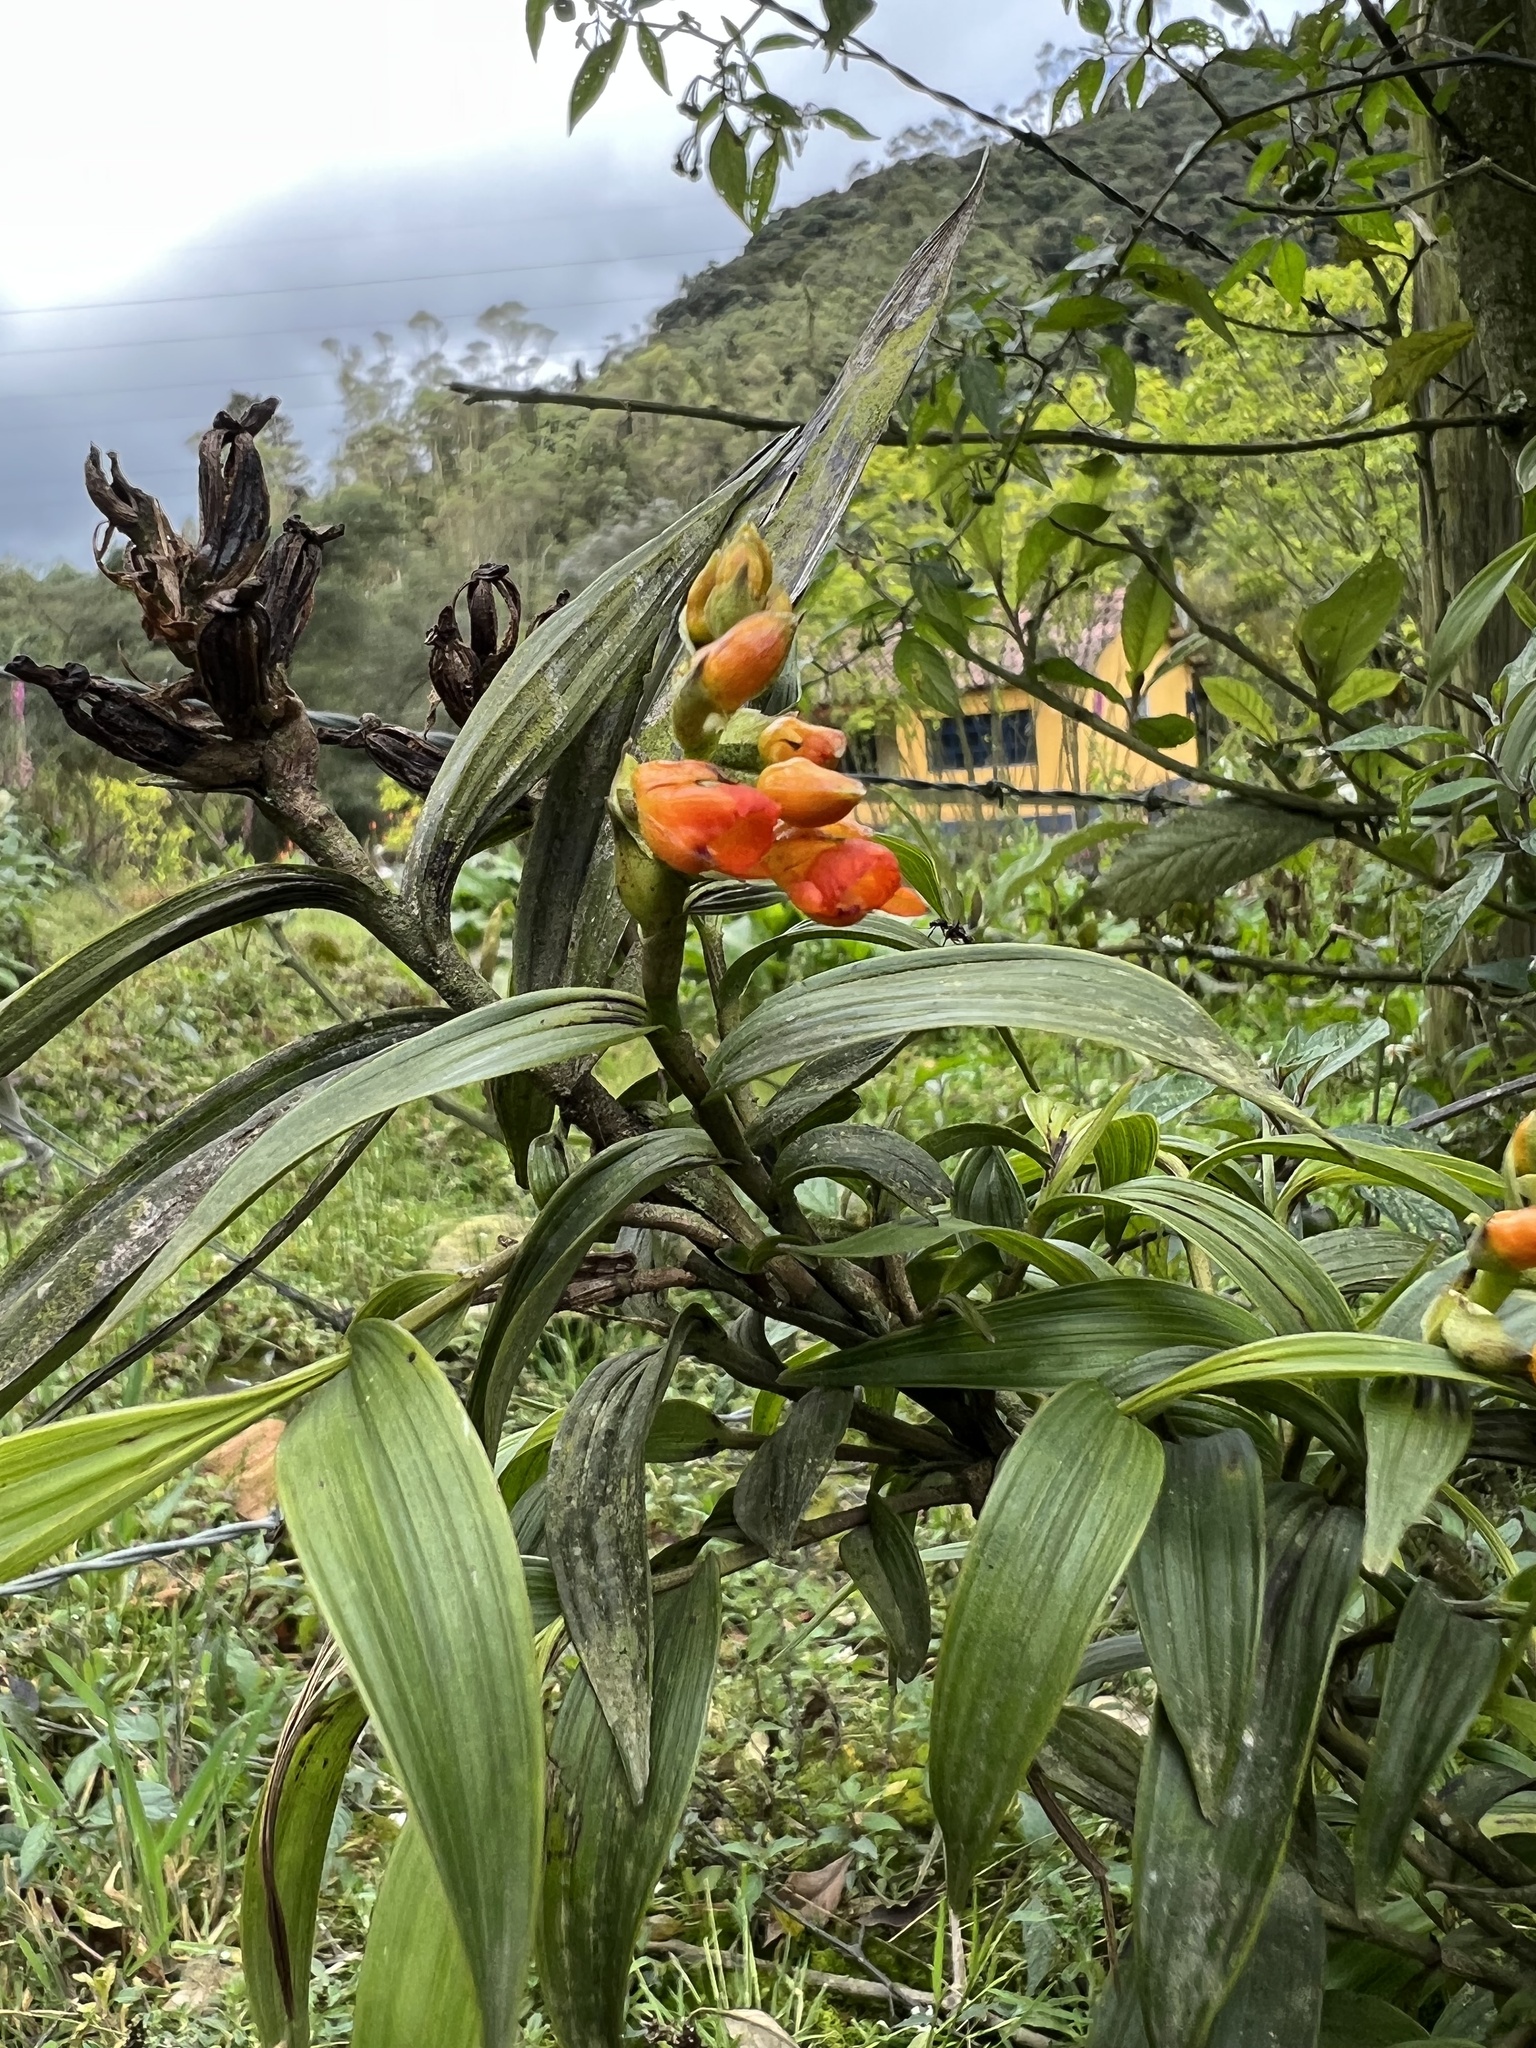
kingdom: Plantae
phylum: Tracheophyta
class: Liliopsida
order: Asparagales
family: Orchidaceae
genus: Elleanthus
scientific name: Elleanthus aurantiacus
